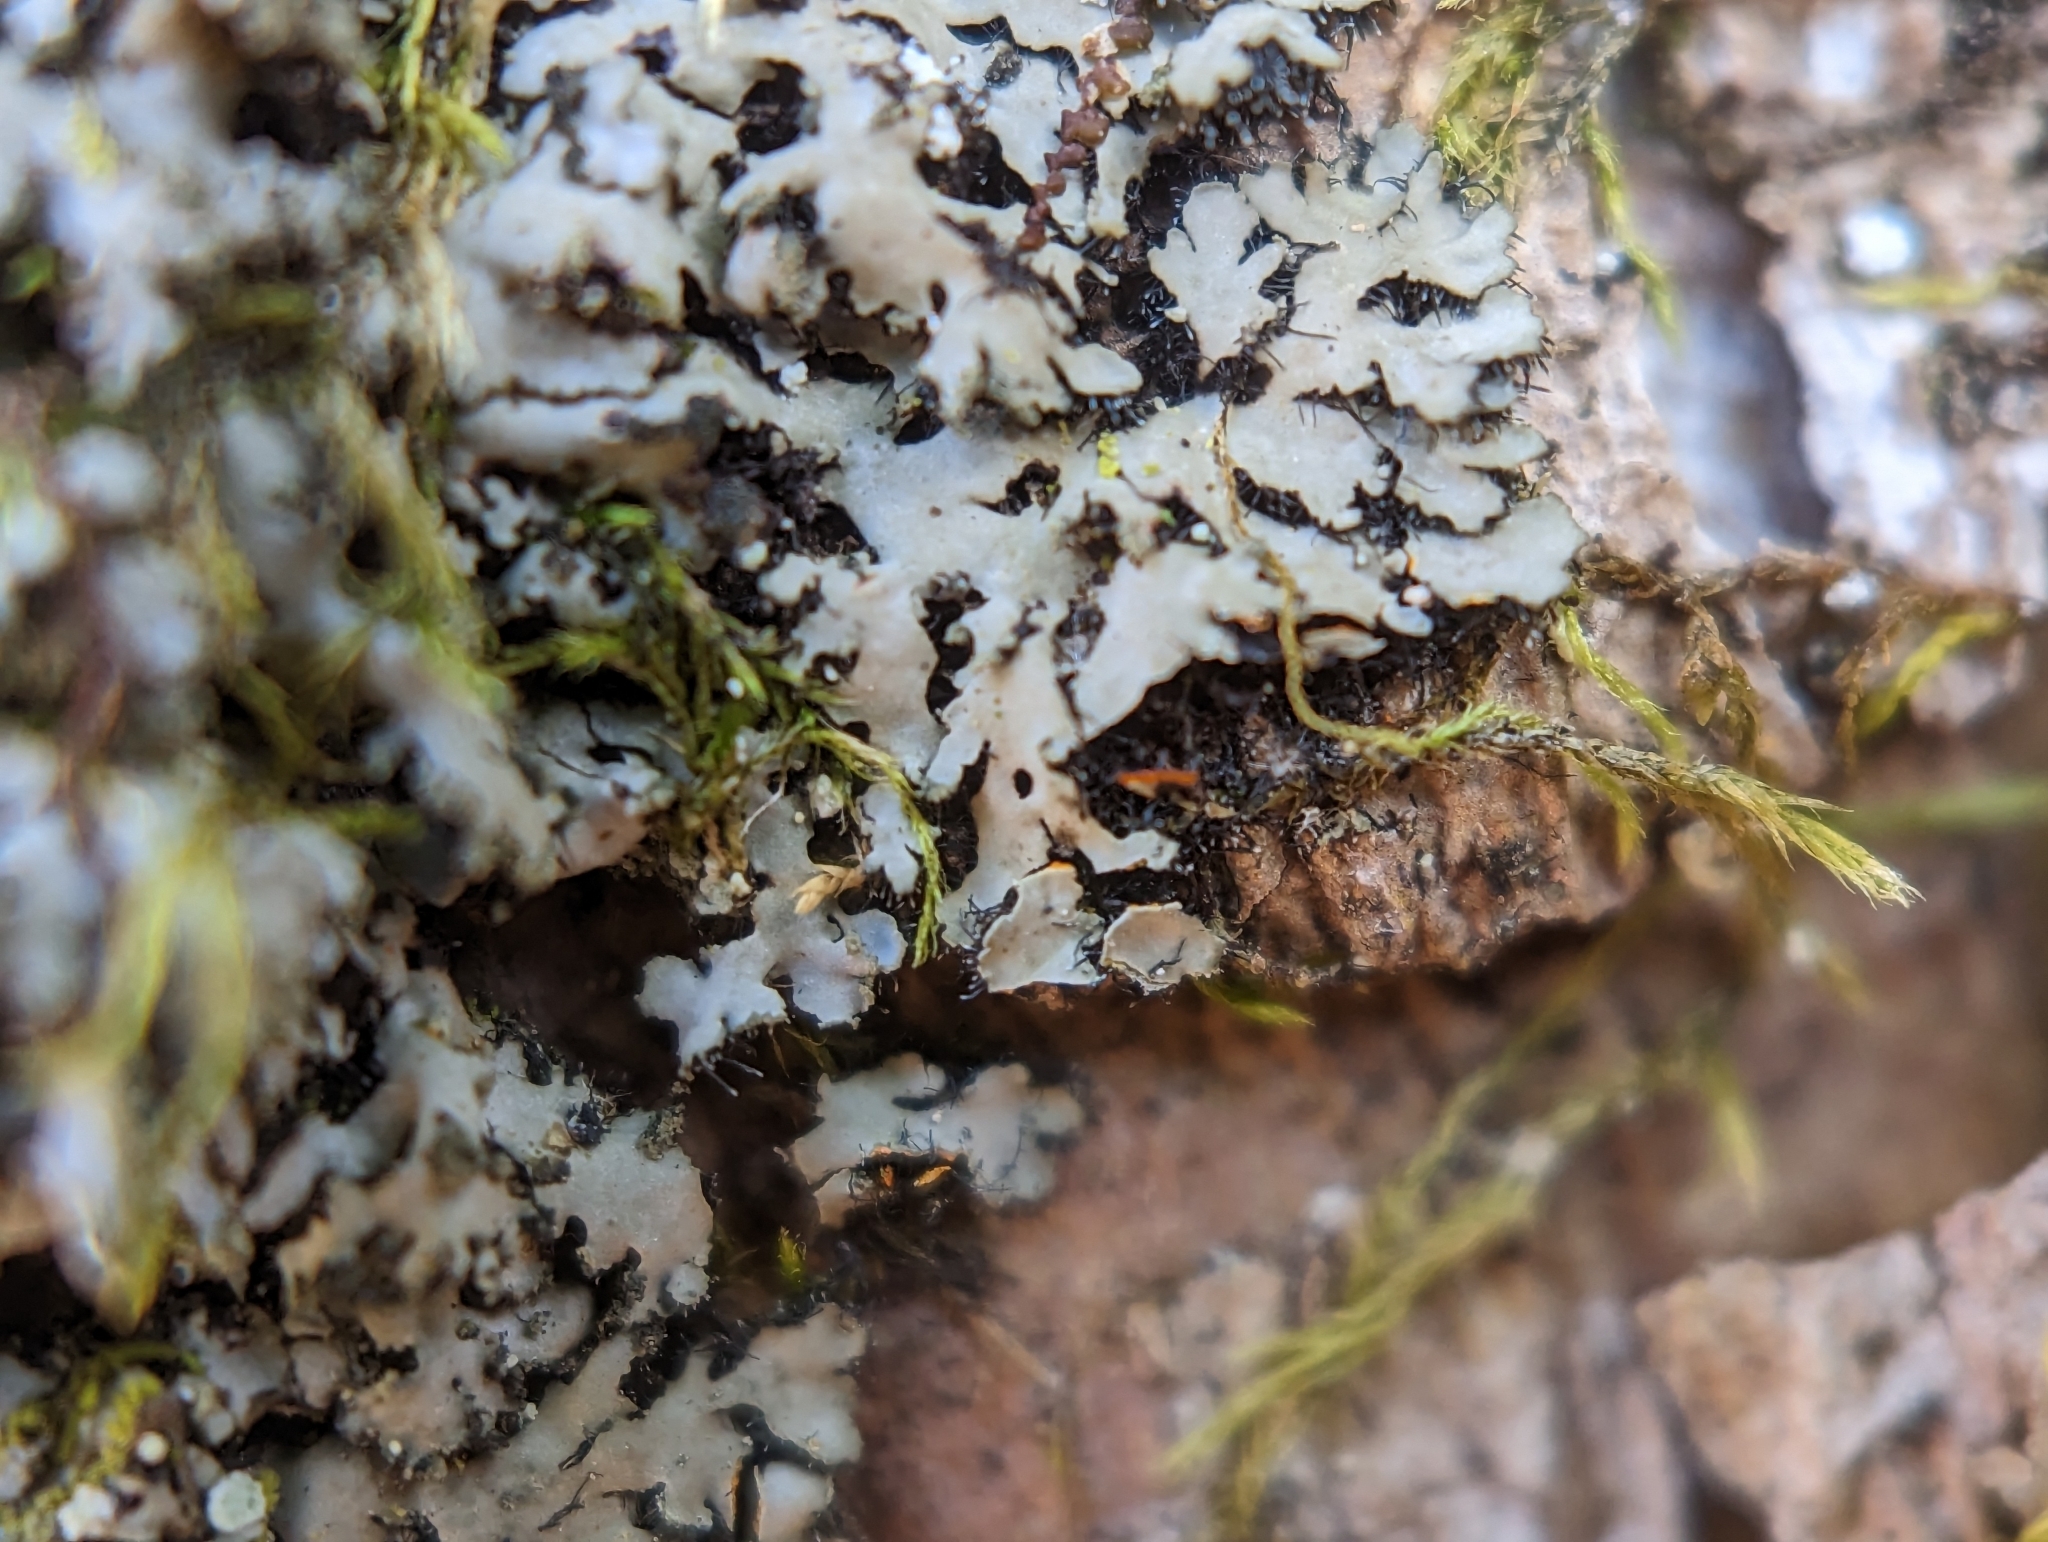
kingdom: Fungi
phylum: Ascomycota
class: Lecanoromycetes
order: Caliciales
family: Physciaceae
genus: Phaeophyscia
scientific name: Phaeophyscia rubropulchra
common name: Orange-cored shadow lichen
